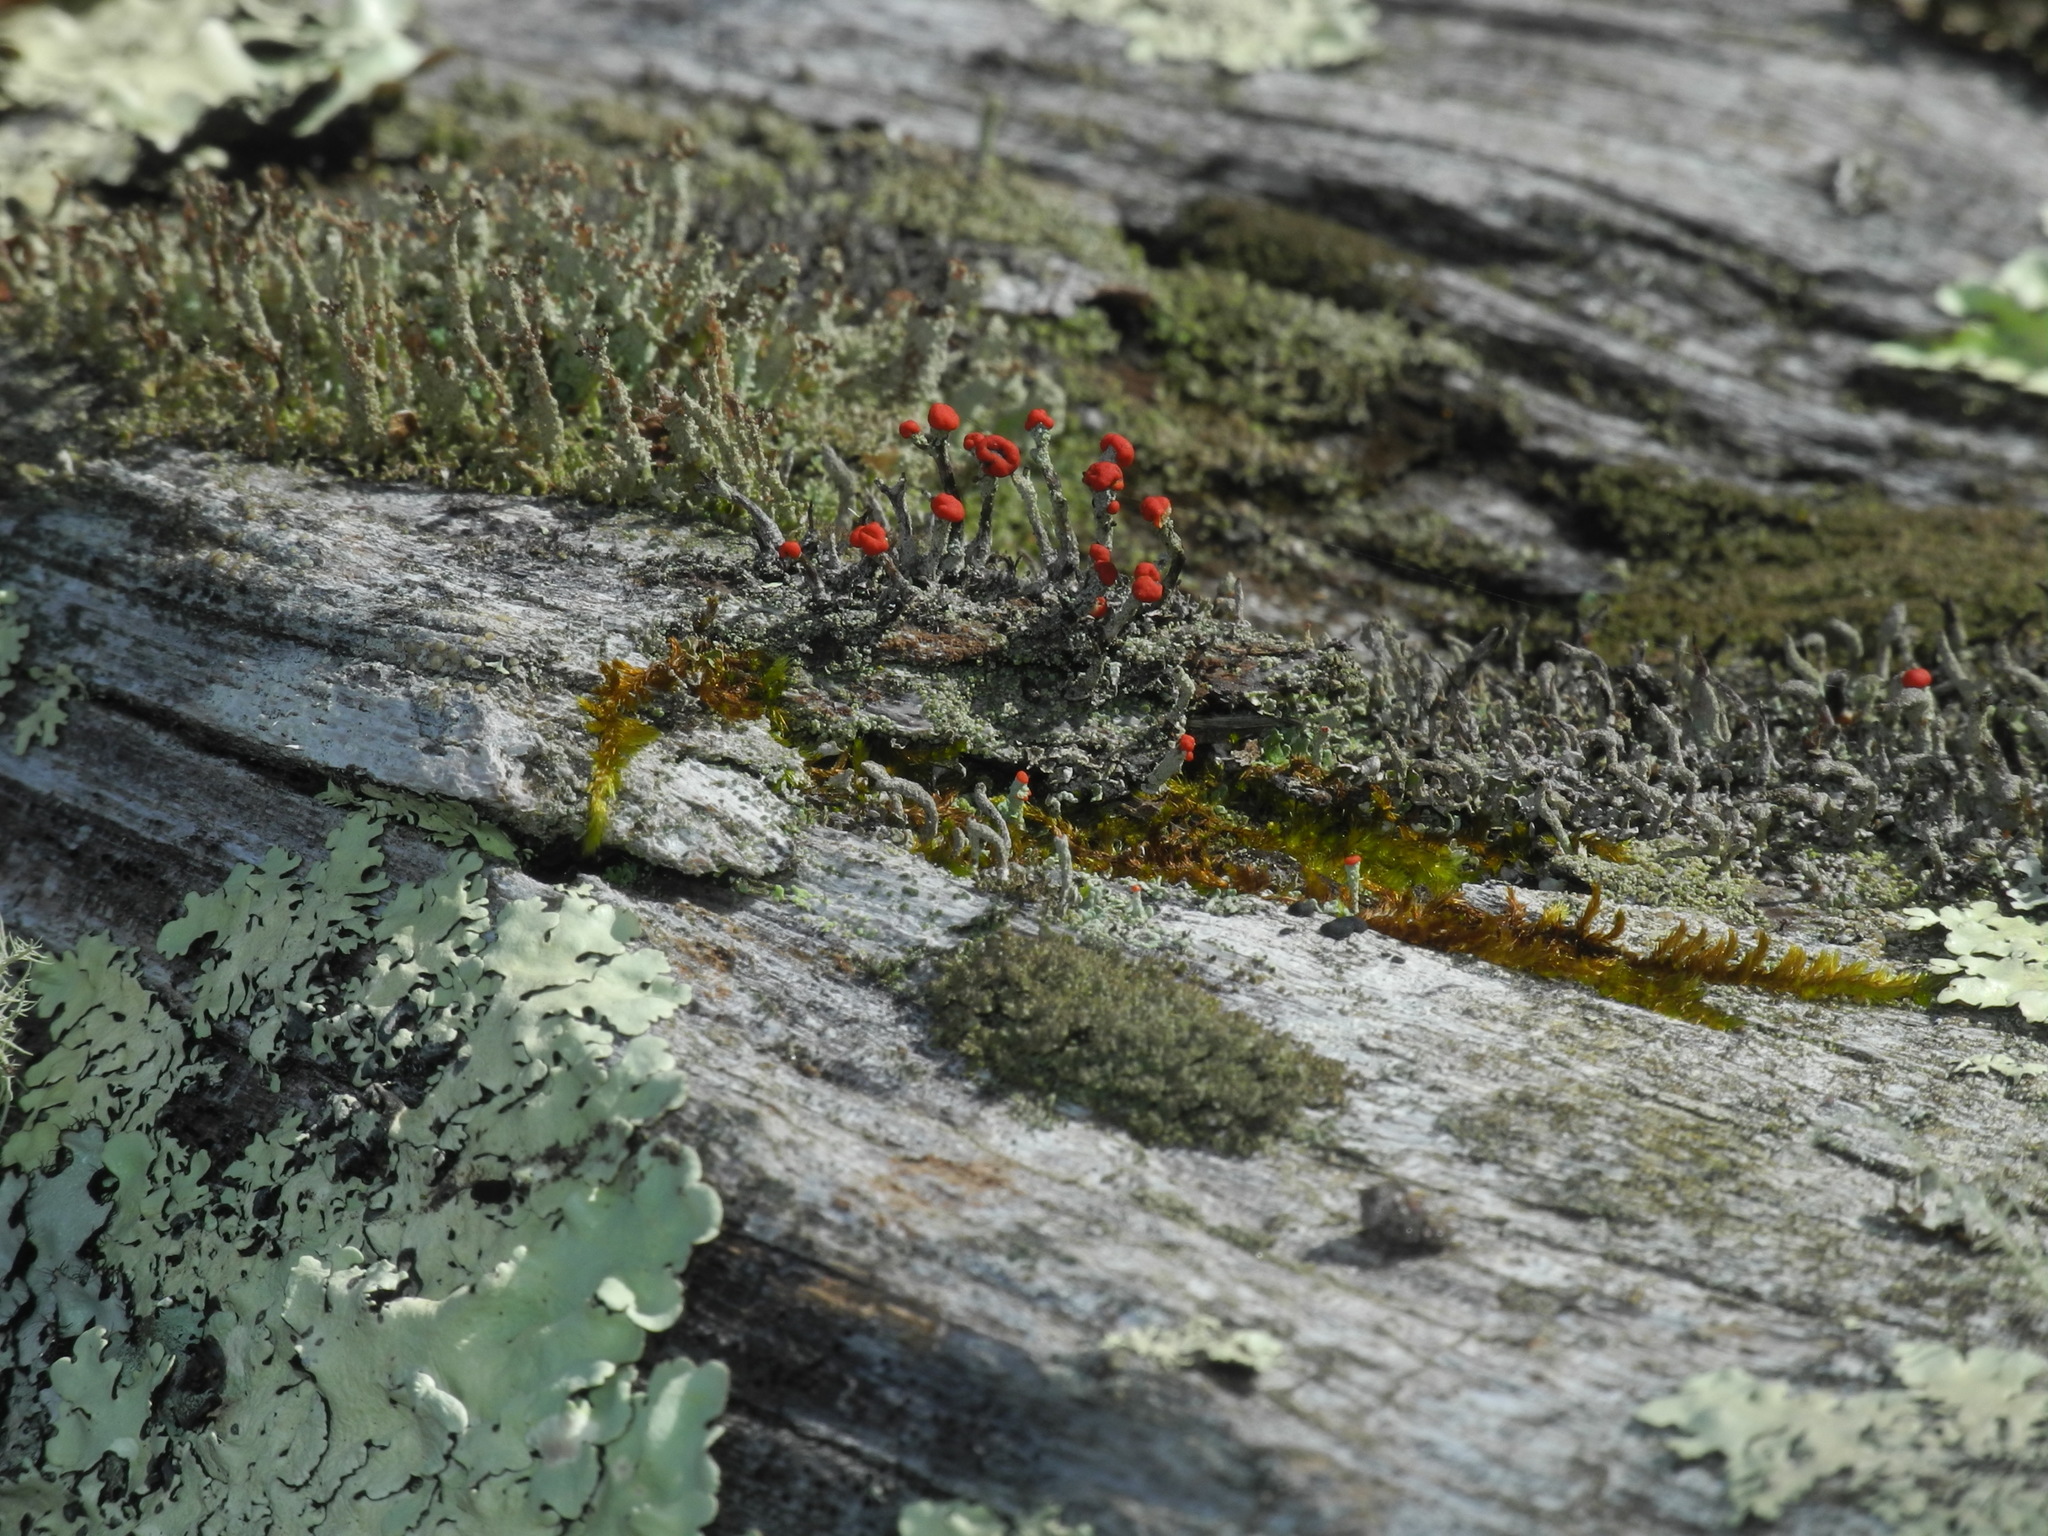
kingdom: Fungi
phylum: Ascomycota
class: Lecanoromycetes
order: Lecanorales
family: Cladoniaceae
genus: Cladonia
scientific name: Cladonia cristatella
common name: British soldier lichen
